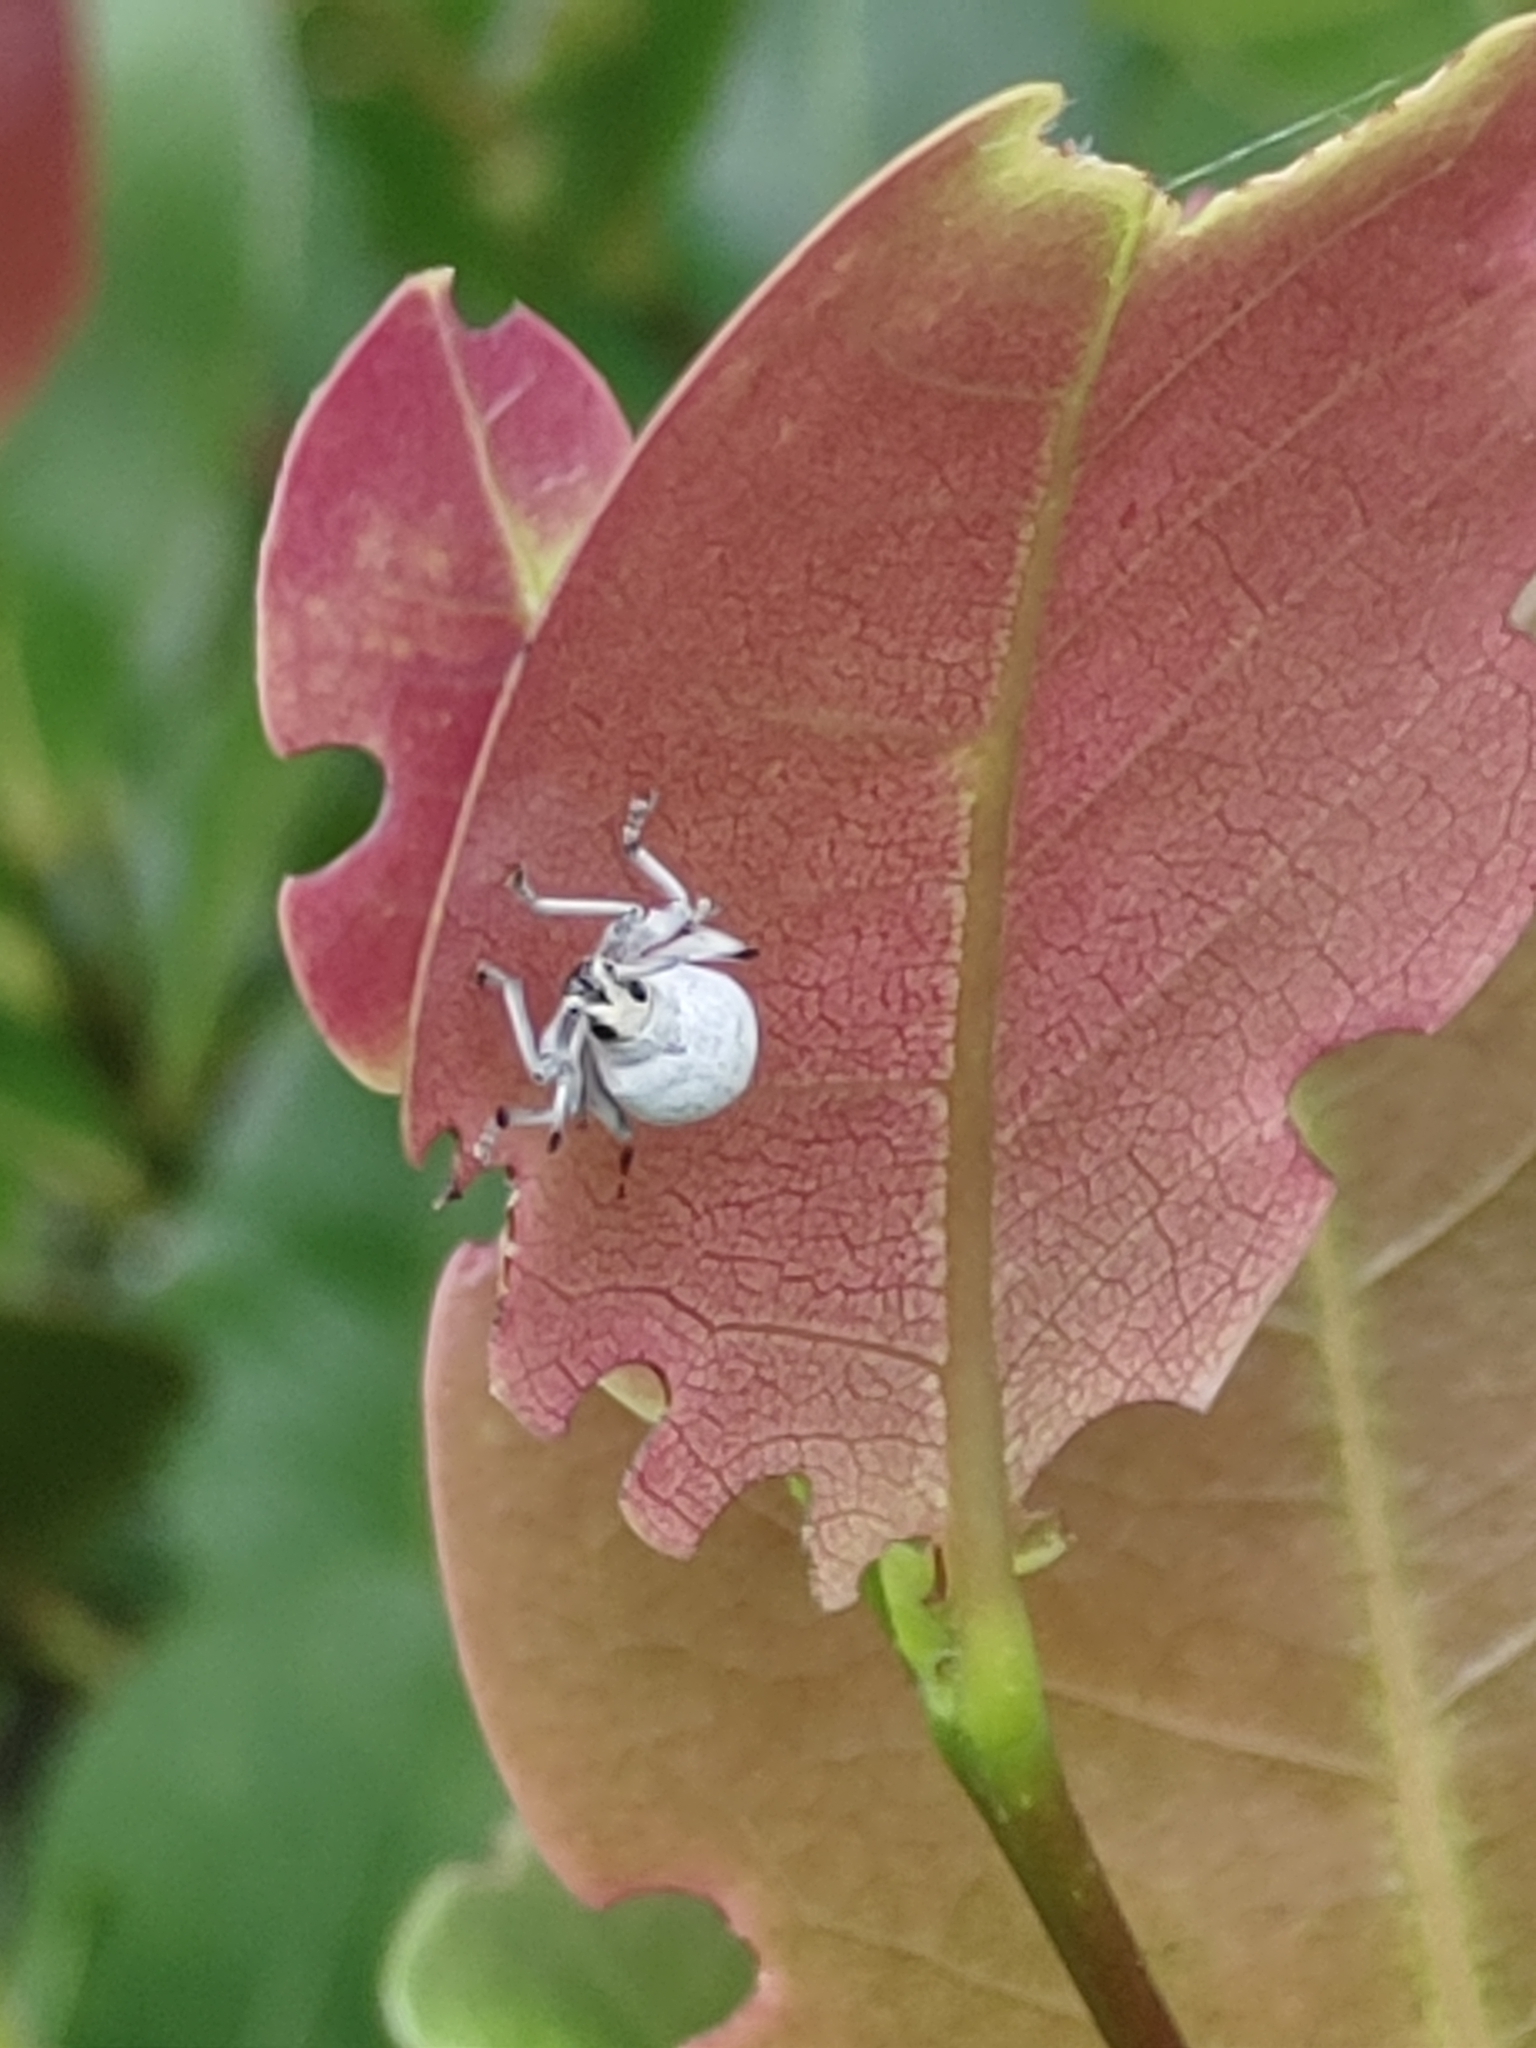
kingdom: Animalia
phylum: Arthropoda
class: Insecta
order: Coleoptera
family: Curculionidae
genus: Myllocerus
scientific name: Myllocerus undecimpustulatus
